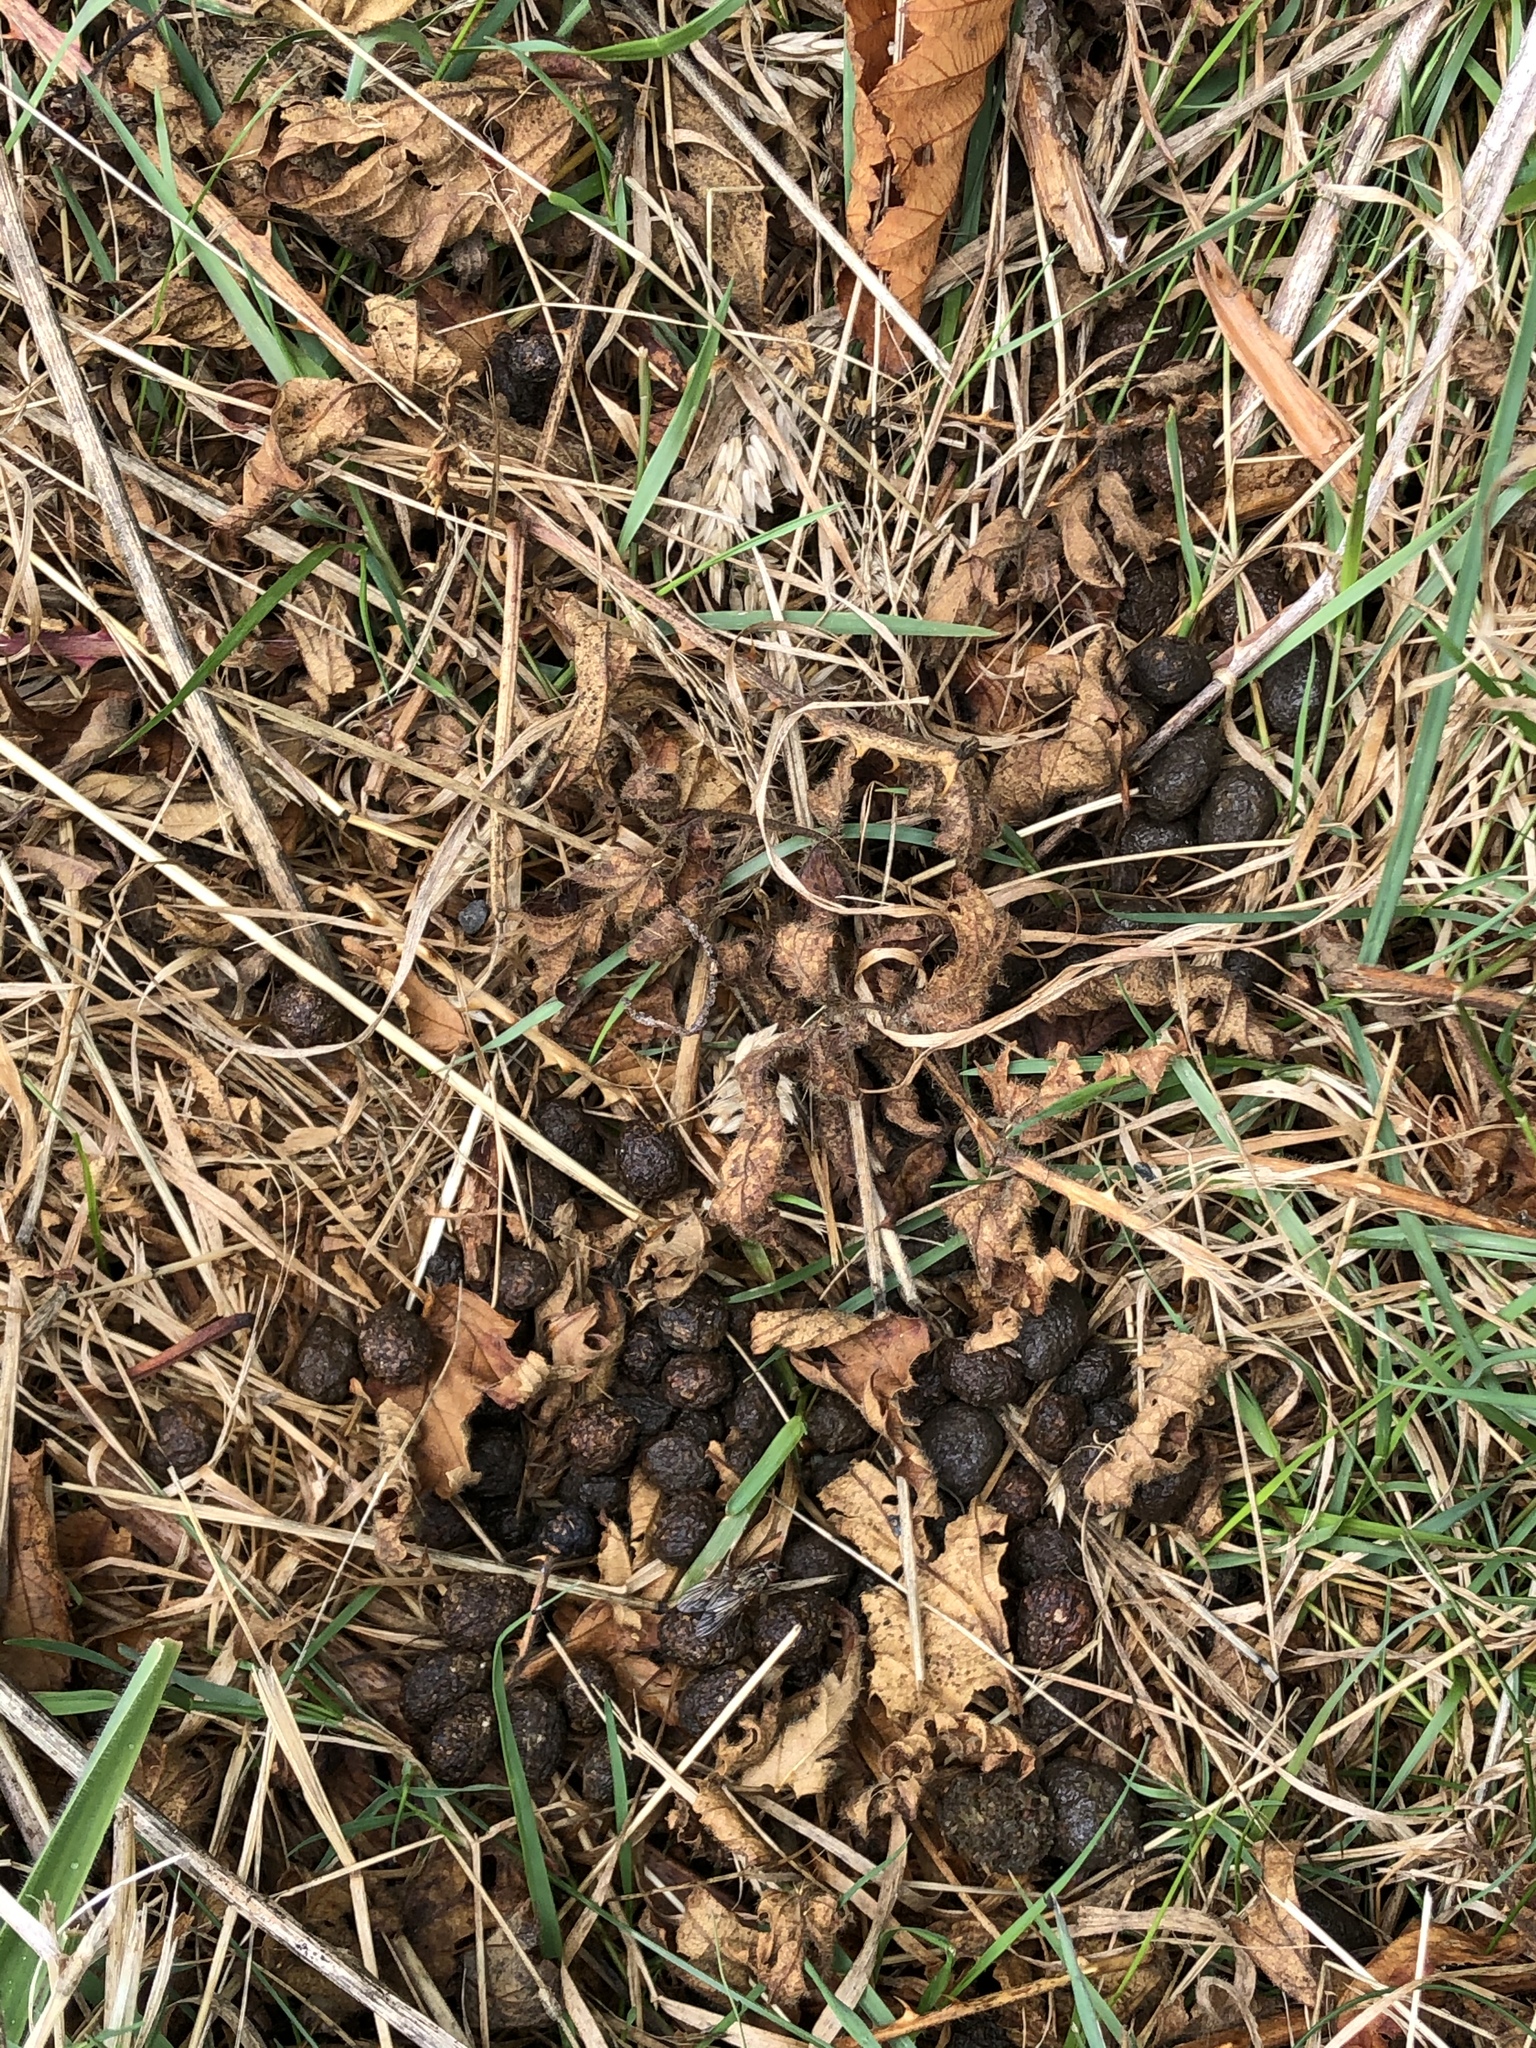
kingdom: Animalia
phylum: Chordata
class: Mammalia
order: Artiodactyla
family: Cervidae
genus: Odocoileus
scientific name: Odocoileus hemionus
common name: Mule deer
